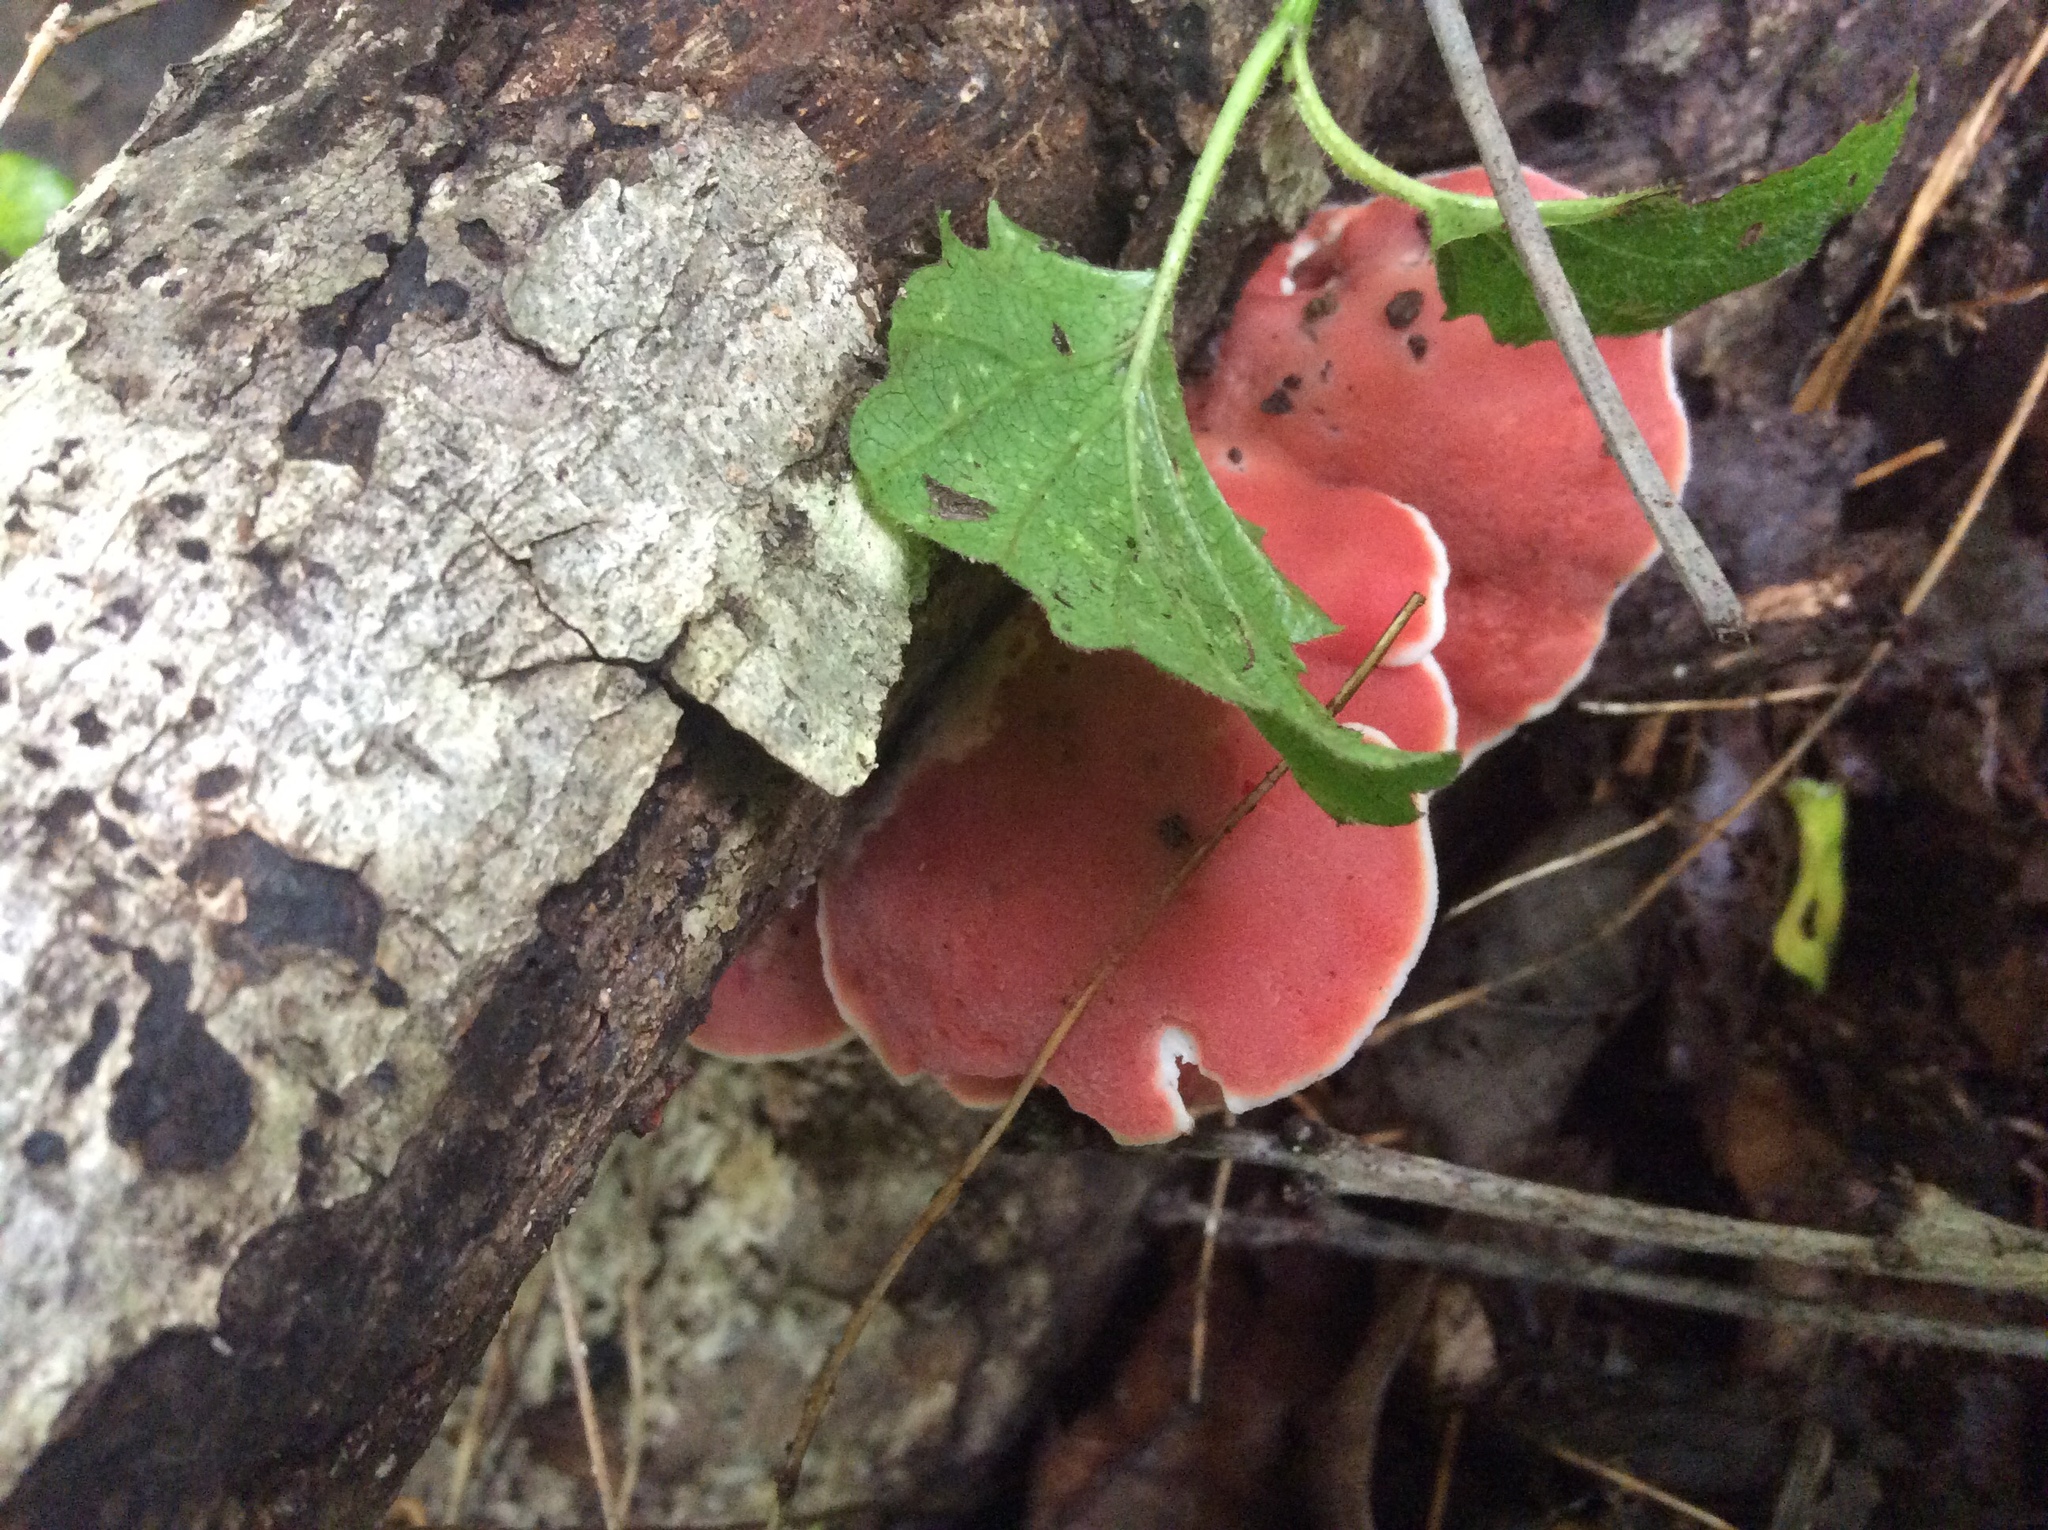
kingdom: Fungi
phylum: Basidiomycota
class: Agaricomycetes
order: Polyporales
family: Irpicaceae
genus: Byssomerulius
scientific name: Byssomerulius incarnatus
